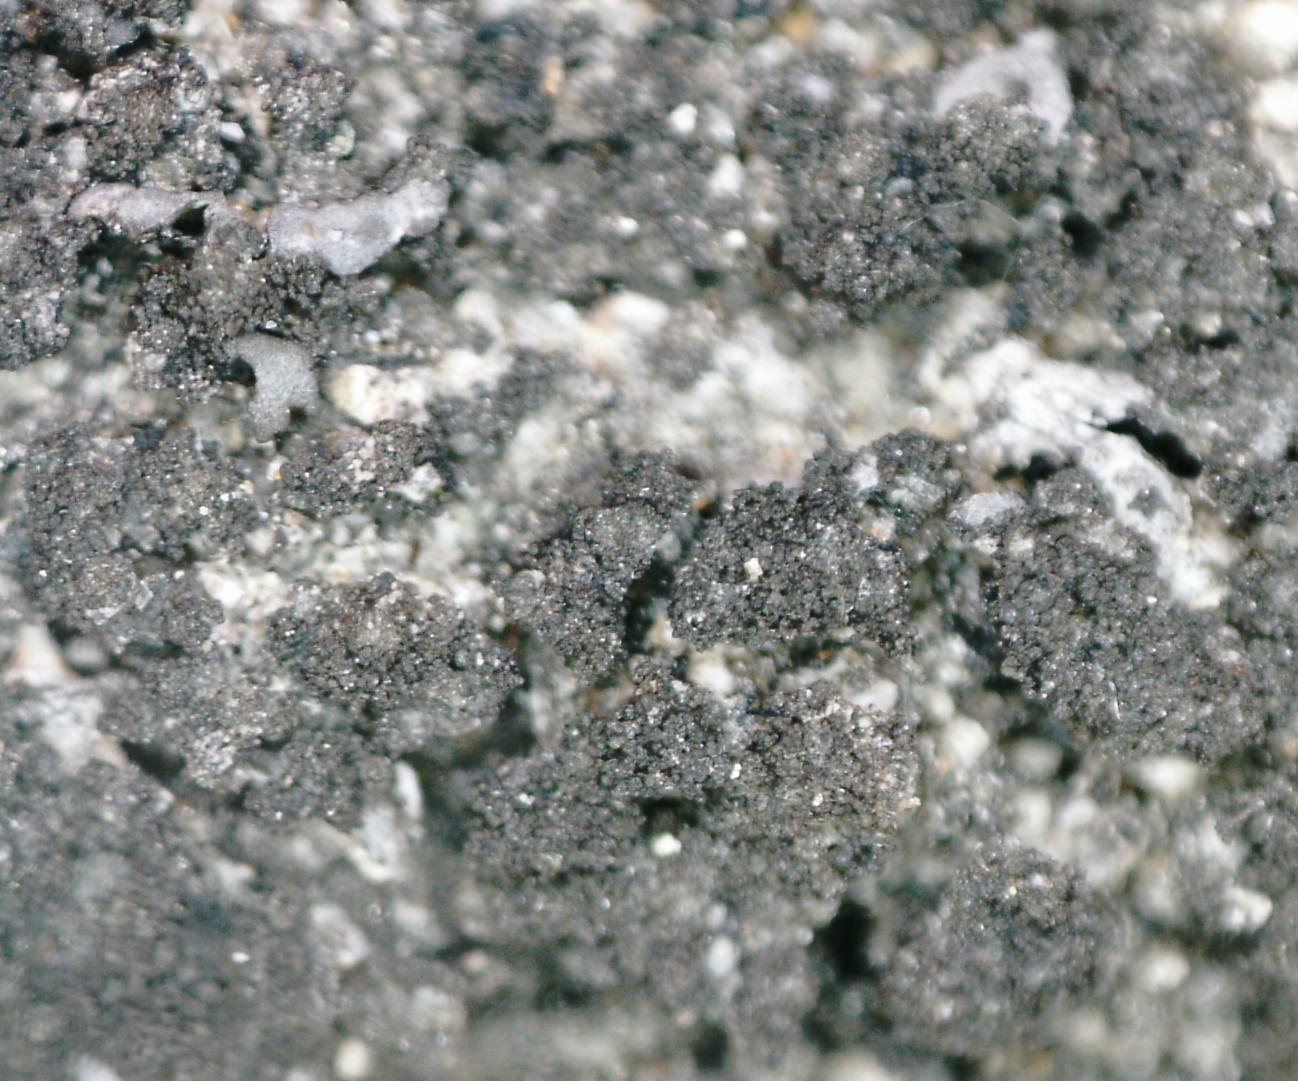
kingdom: Fungi
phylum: Ascomycota
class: Lecanoromycetes
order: Caliciales
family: Physciaceae
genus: Phaeophyscia
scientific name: Phaeophyscia sciastra
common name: Dark shadow lichen
